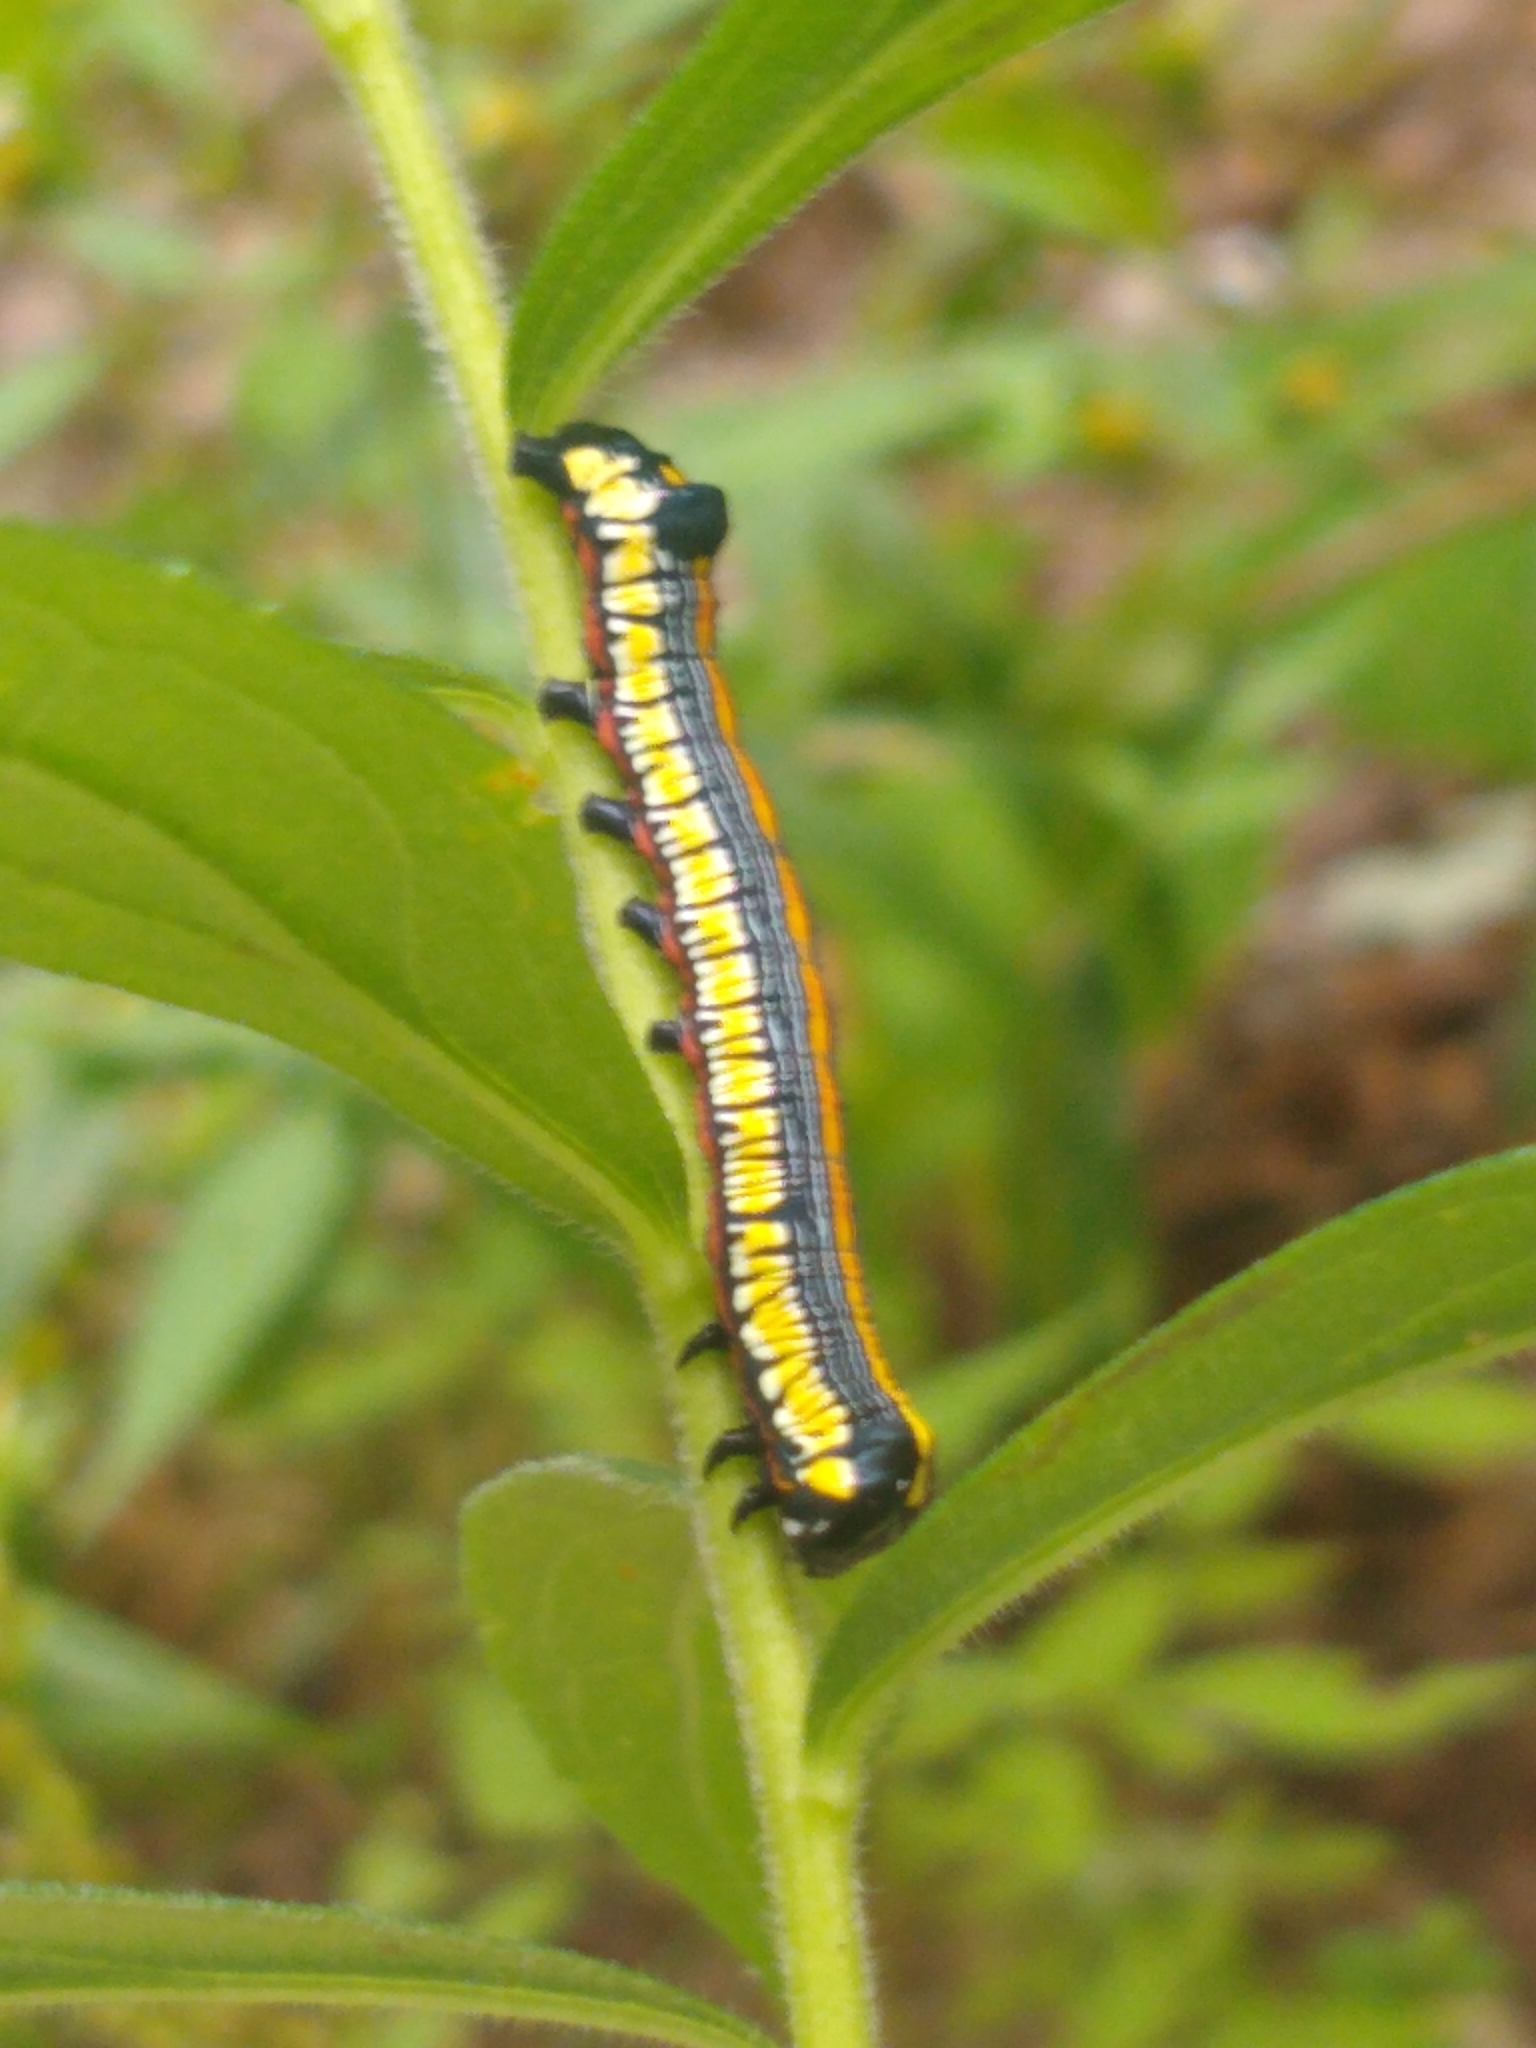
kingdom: Animalia
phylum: Arthropoda
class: Insecta
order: Lepidoptera
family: Noctuidae
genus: Cucullia
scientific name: Cucullia convexipennis
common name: Brown-hooded owlet
